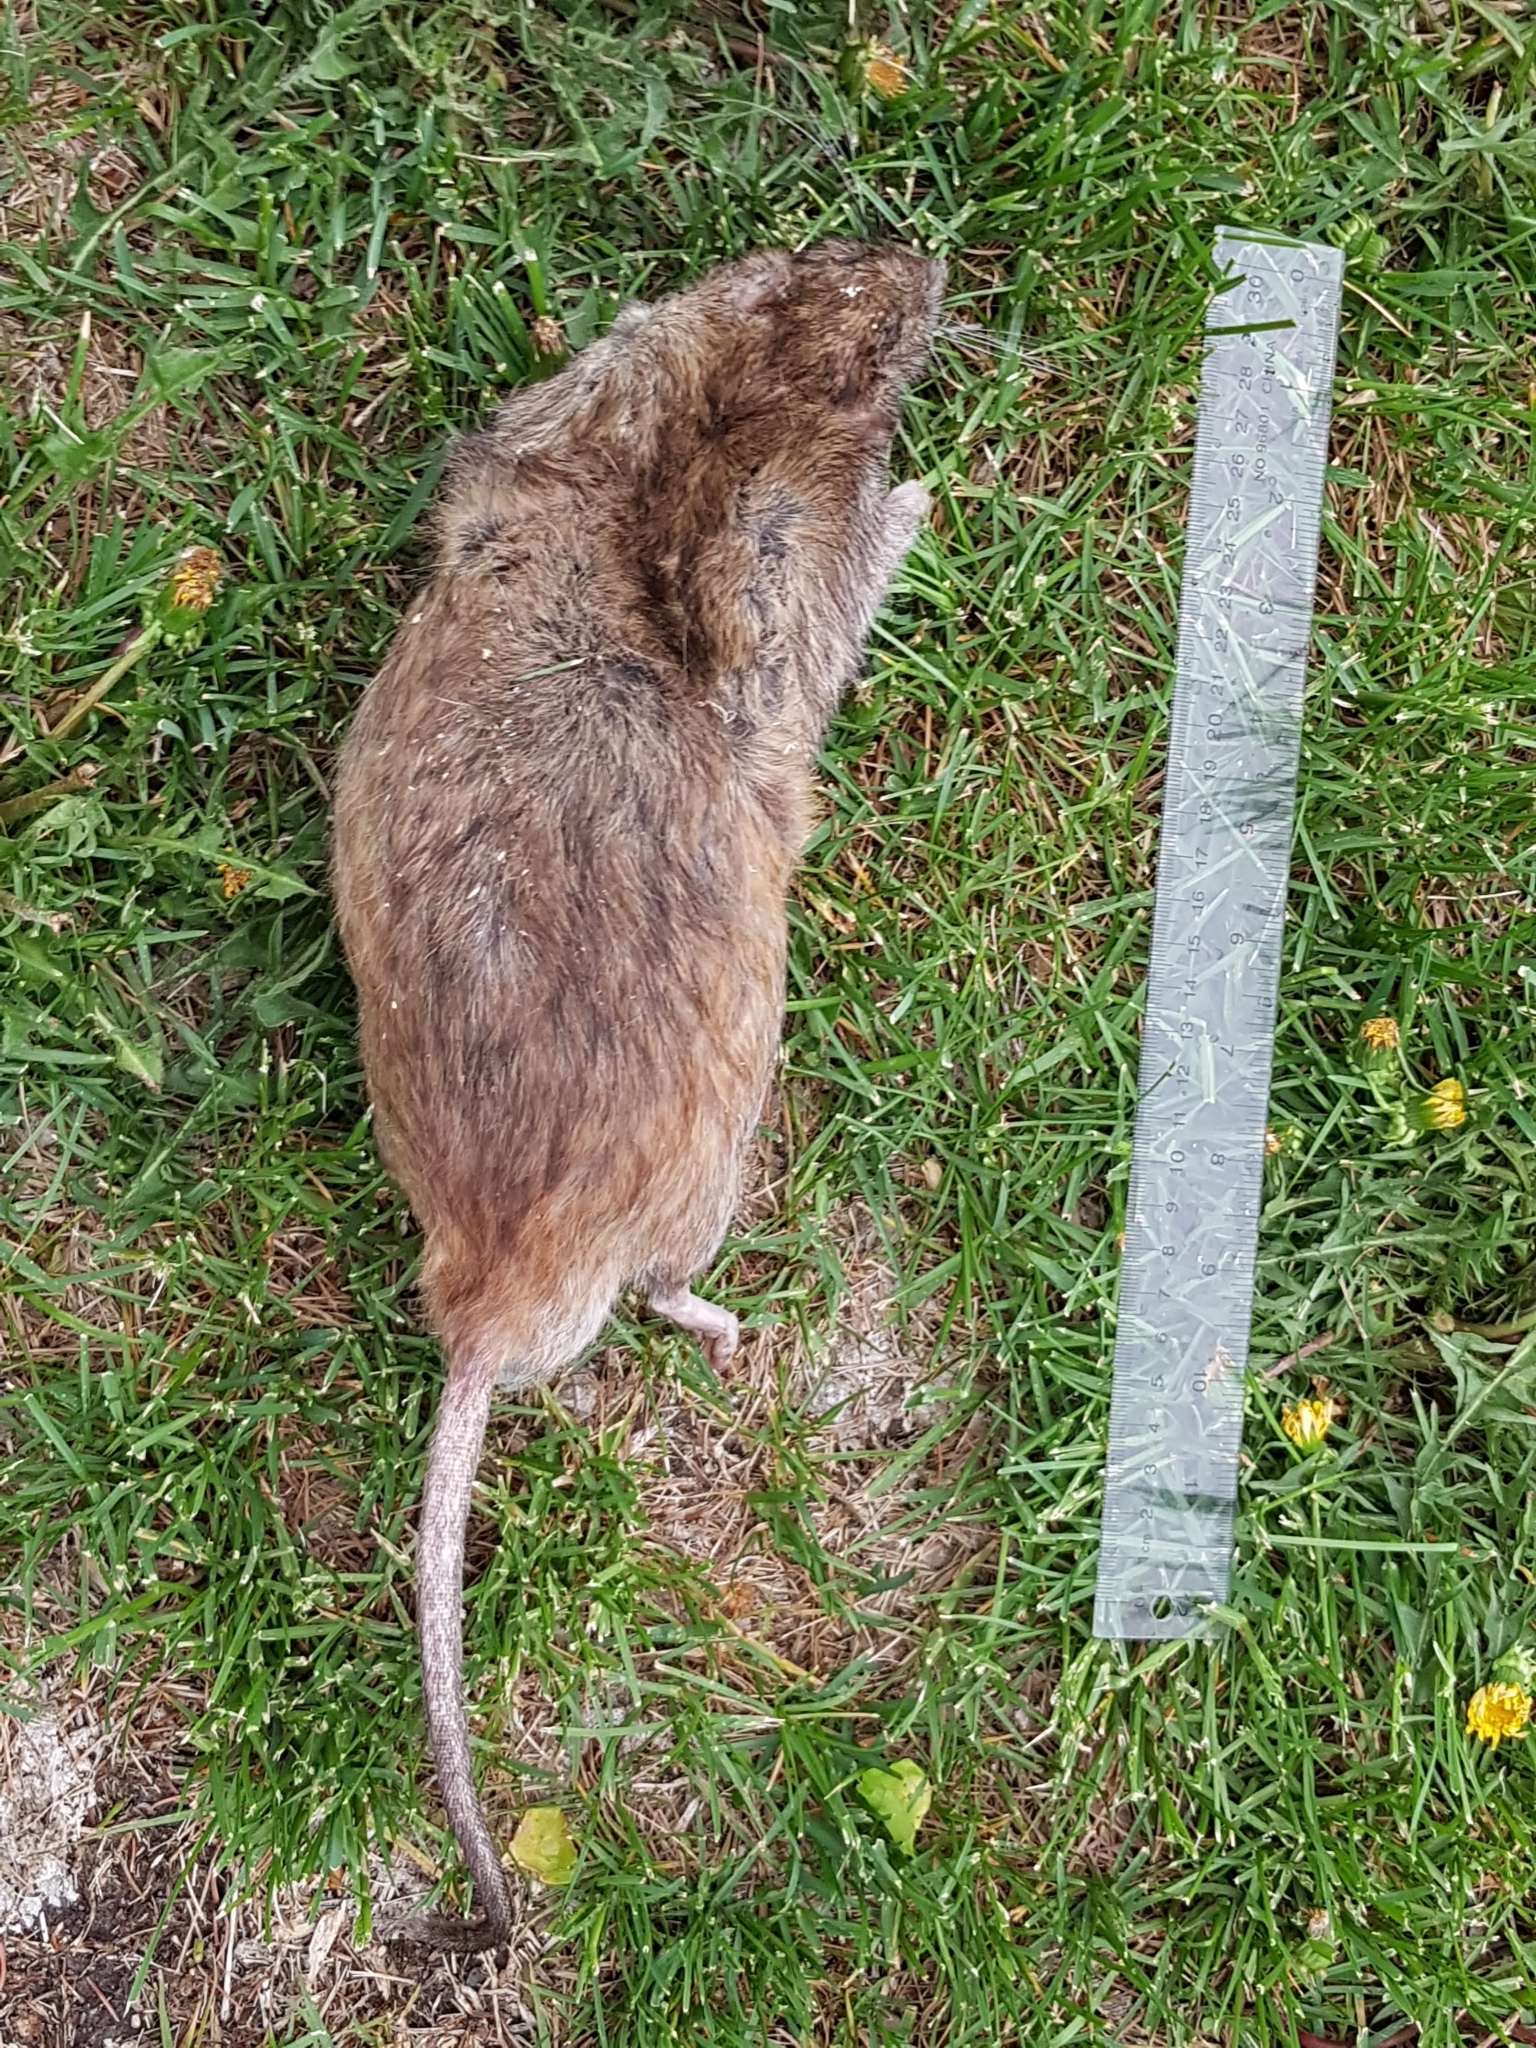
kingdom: Animalia
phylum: Chordata
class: Mammalia
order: Rodentia
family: Muridae
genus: Rattus
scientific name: Rattus norvegicus
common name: Brown rat
